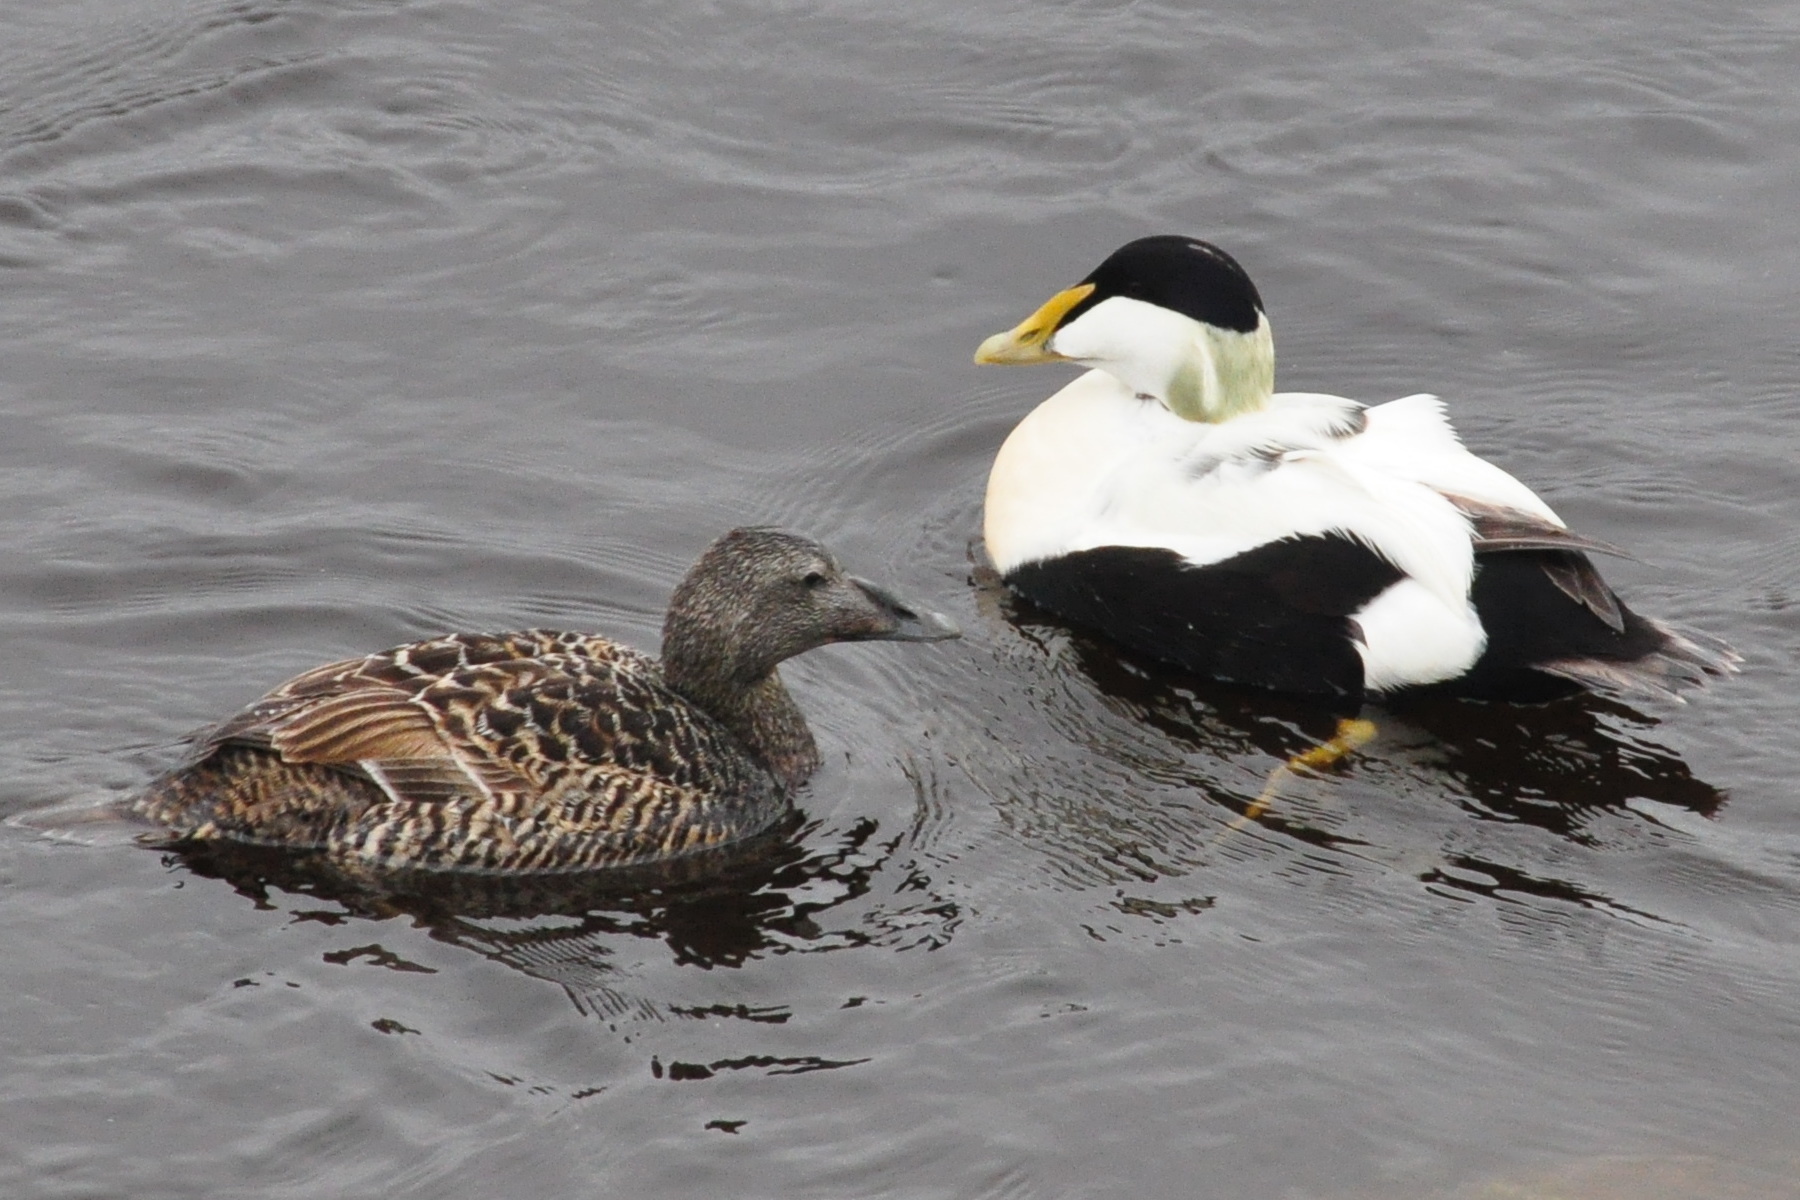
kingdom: Animalia
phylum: Chordata
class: Aves
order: Anseriformes
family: Anatidae
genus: Somateria
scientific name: Somateria mollissima
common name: Common eider
